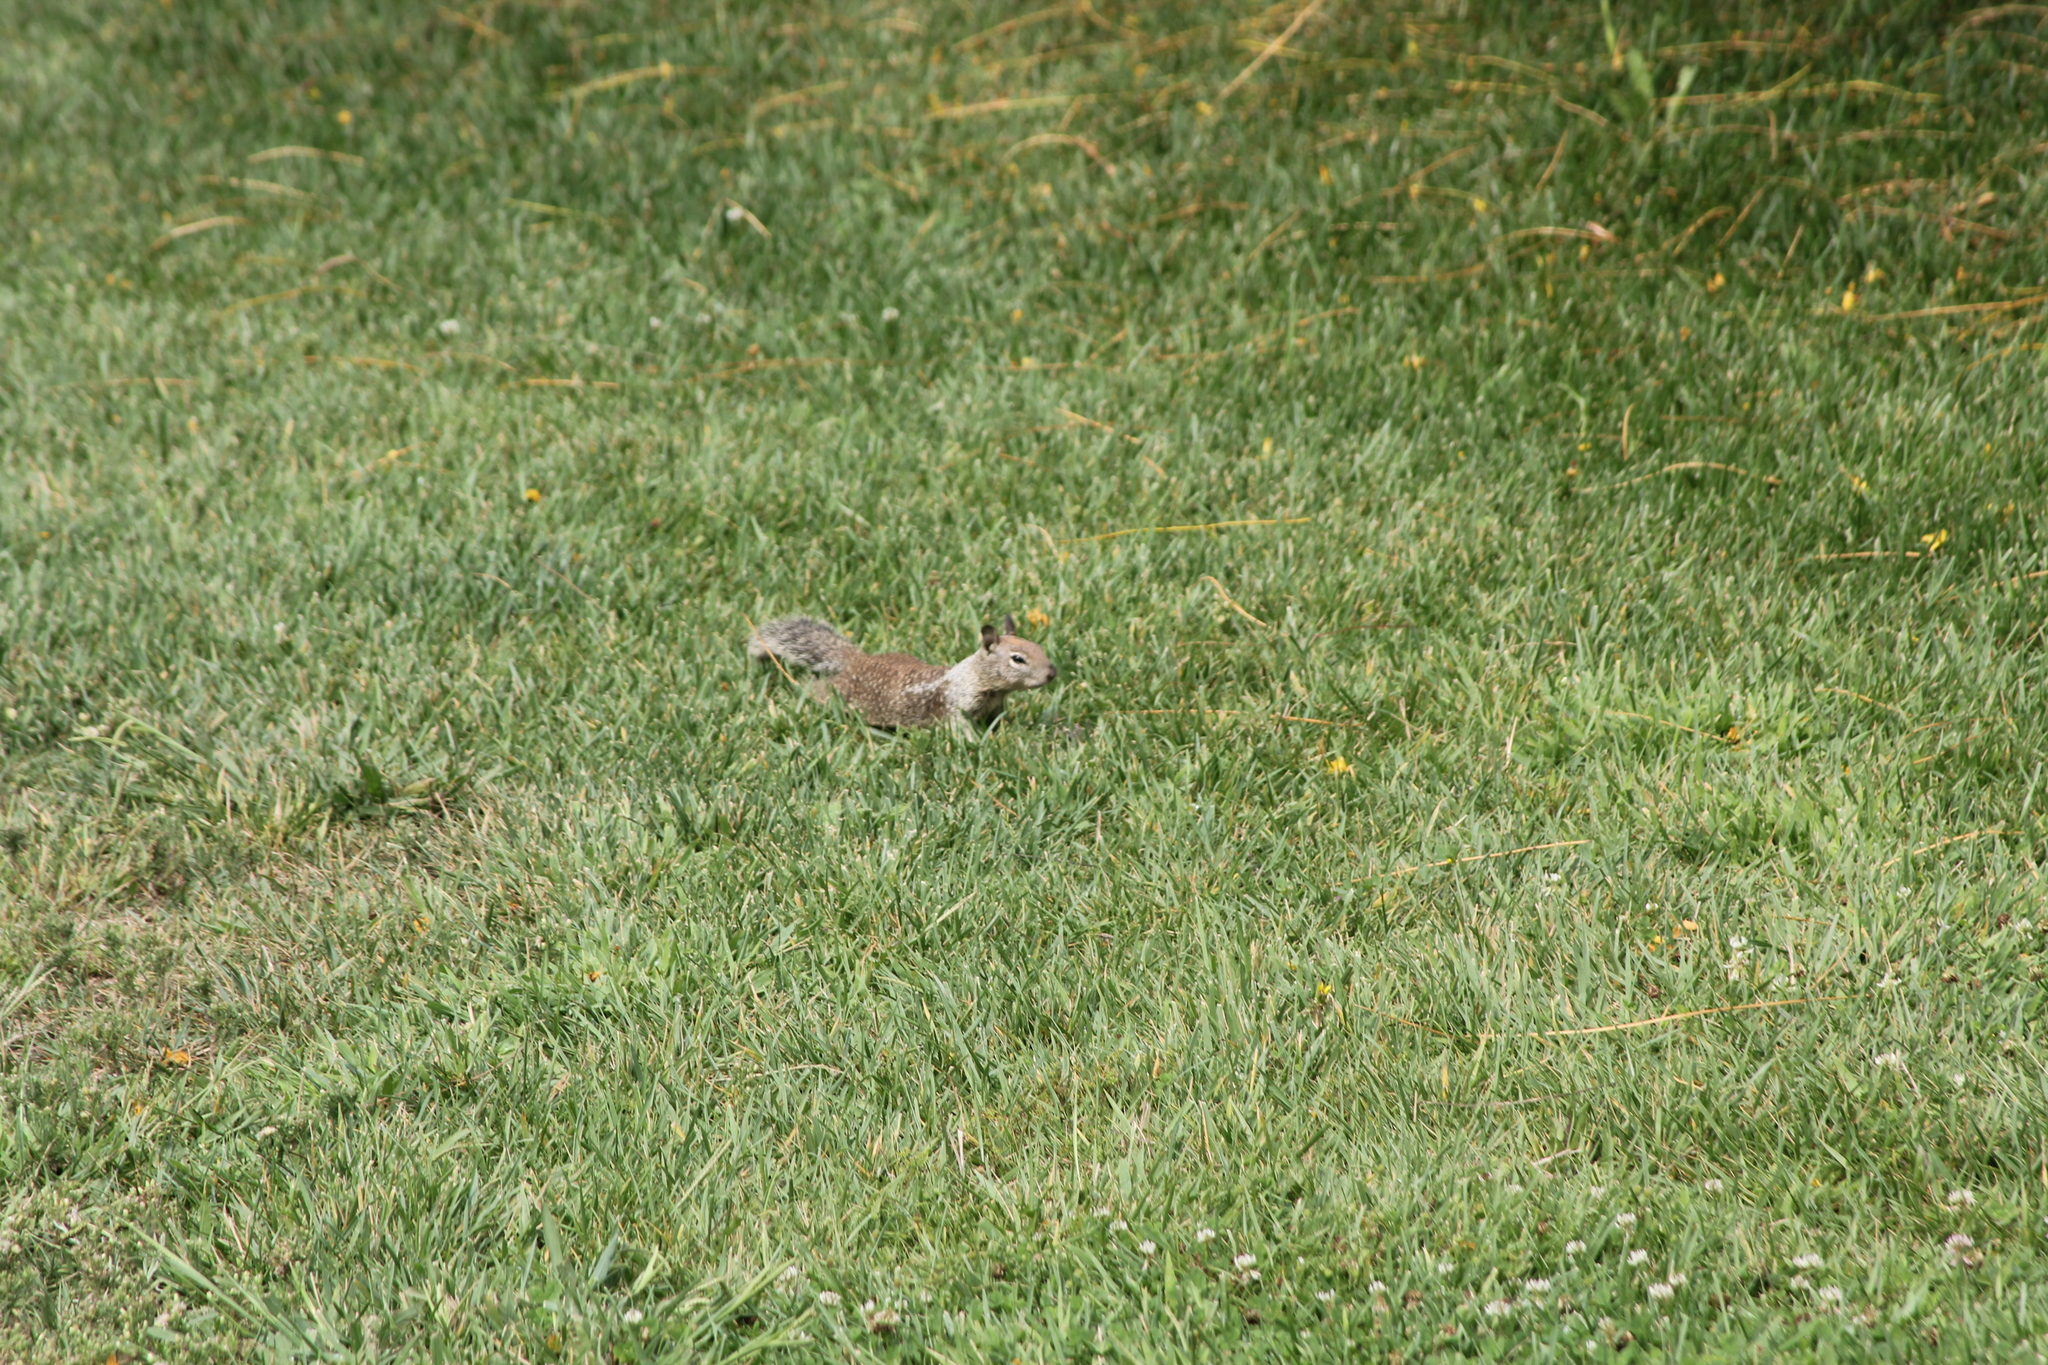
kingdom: Animalia
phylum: Chordata
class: Mammalia
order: Rodentia
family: Sciuridae
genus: Otospermophilus
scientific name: Otospermophilus beecheyi
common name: California ground squirrel
